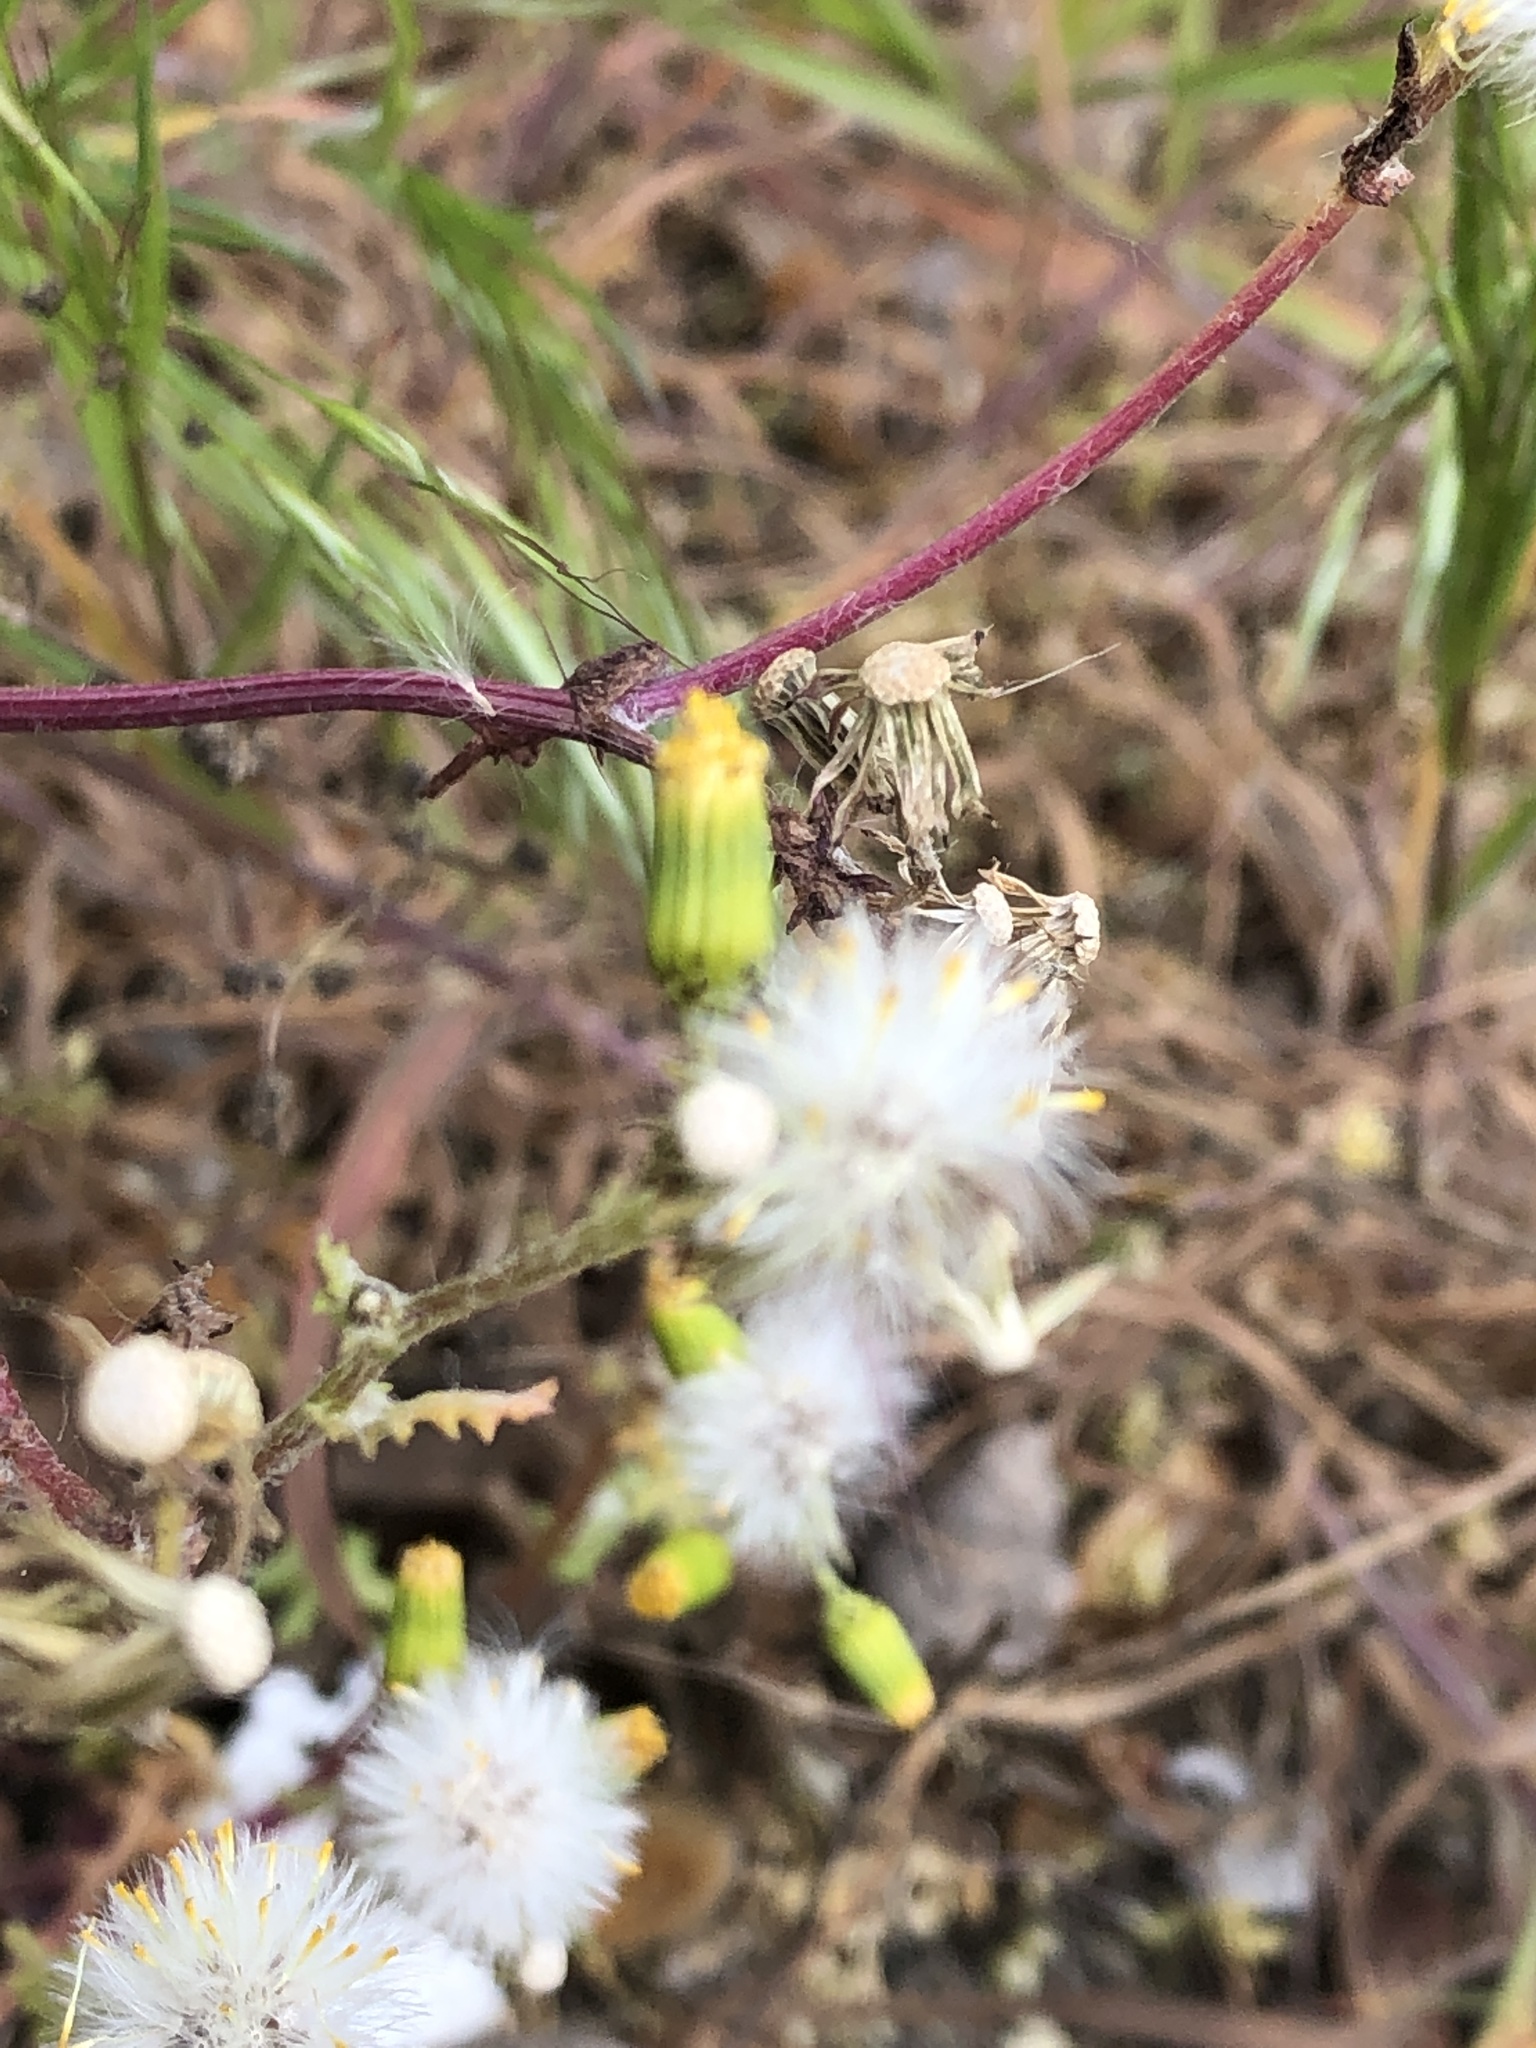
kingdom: Plantae
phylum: Tracheophyta
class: Magnoliopsida
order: Asterales
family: Asteraceae
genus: Senecio
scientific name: Senecio vulgaris
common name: Old-man-in-the-spring
